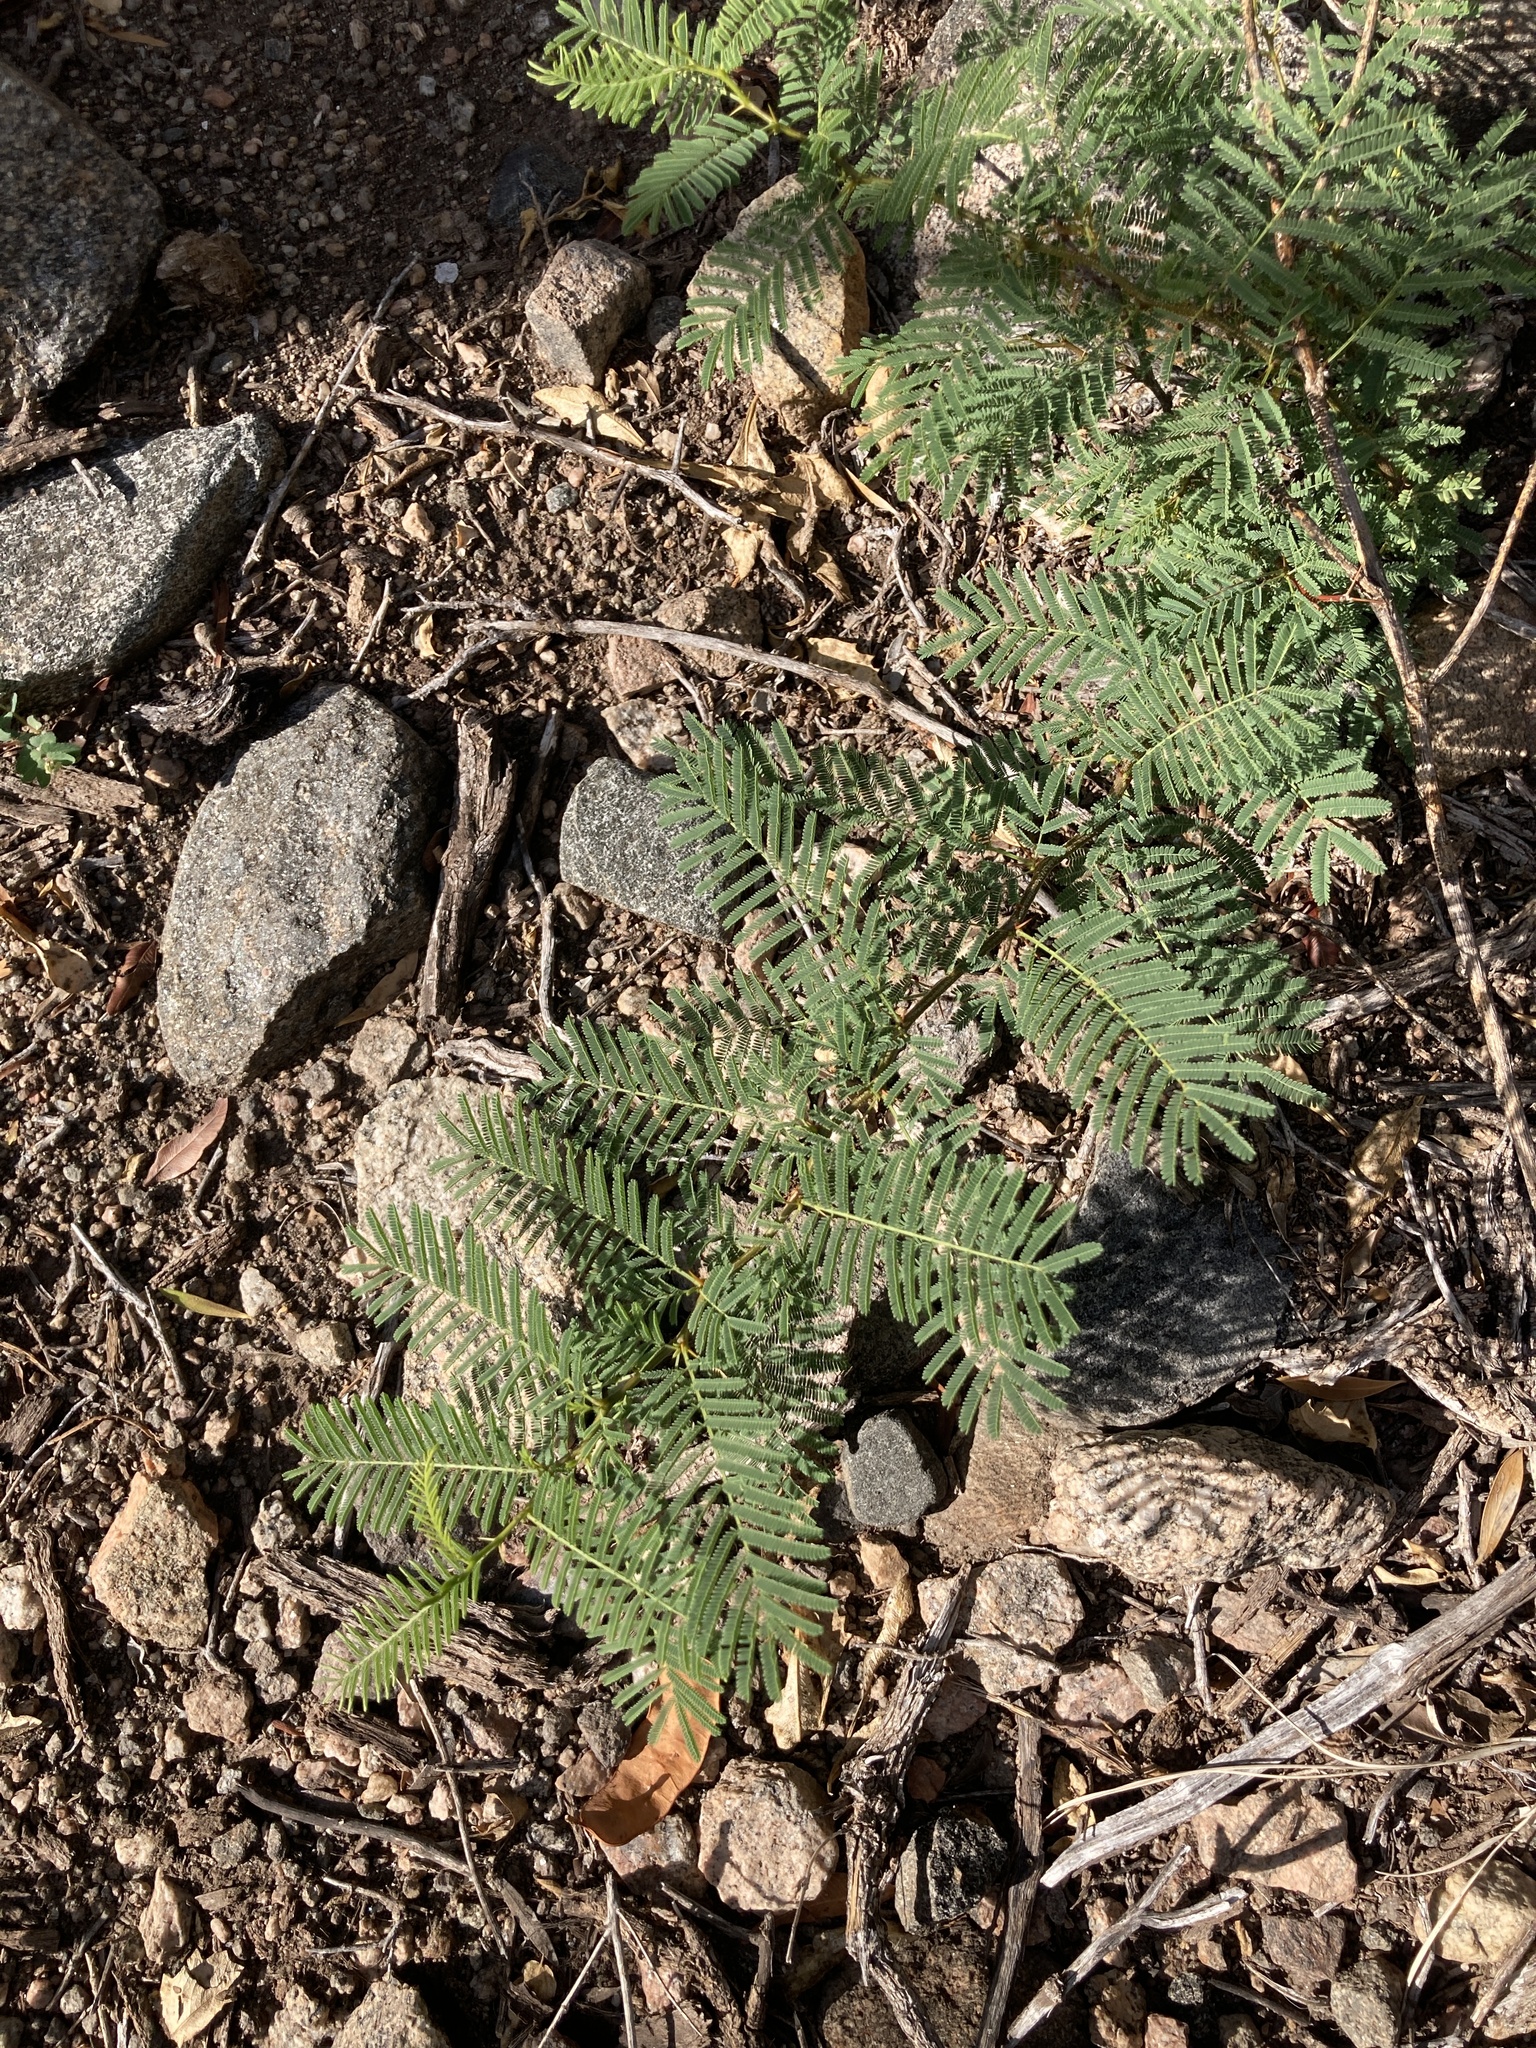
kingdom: Plantae
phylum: Tracheophyta
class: Magnoliopsida
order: Fabales
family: Fabaceae
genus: Vachellia
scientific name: Vachellia aroma
